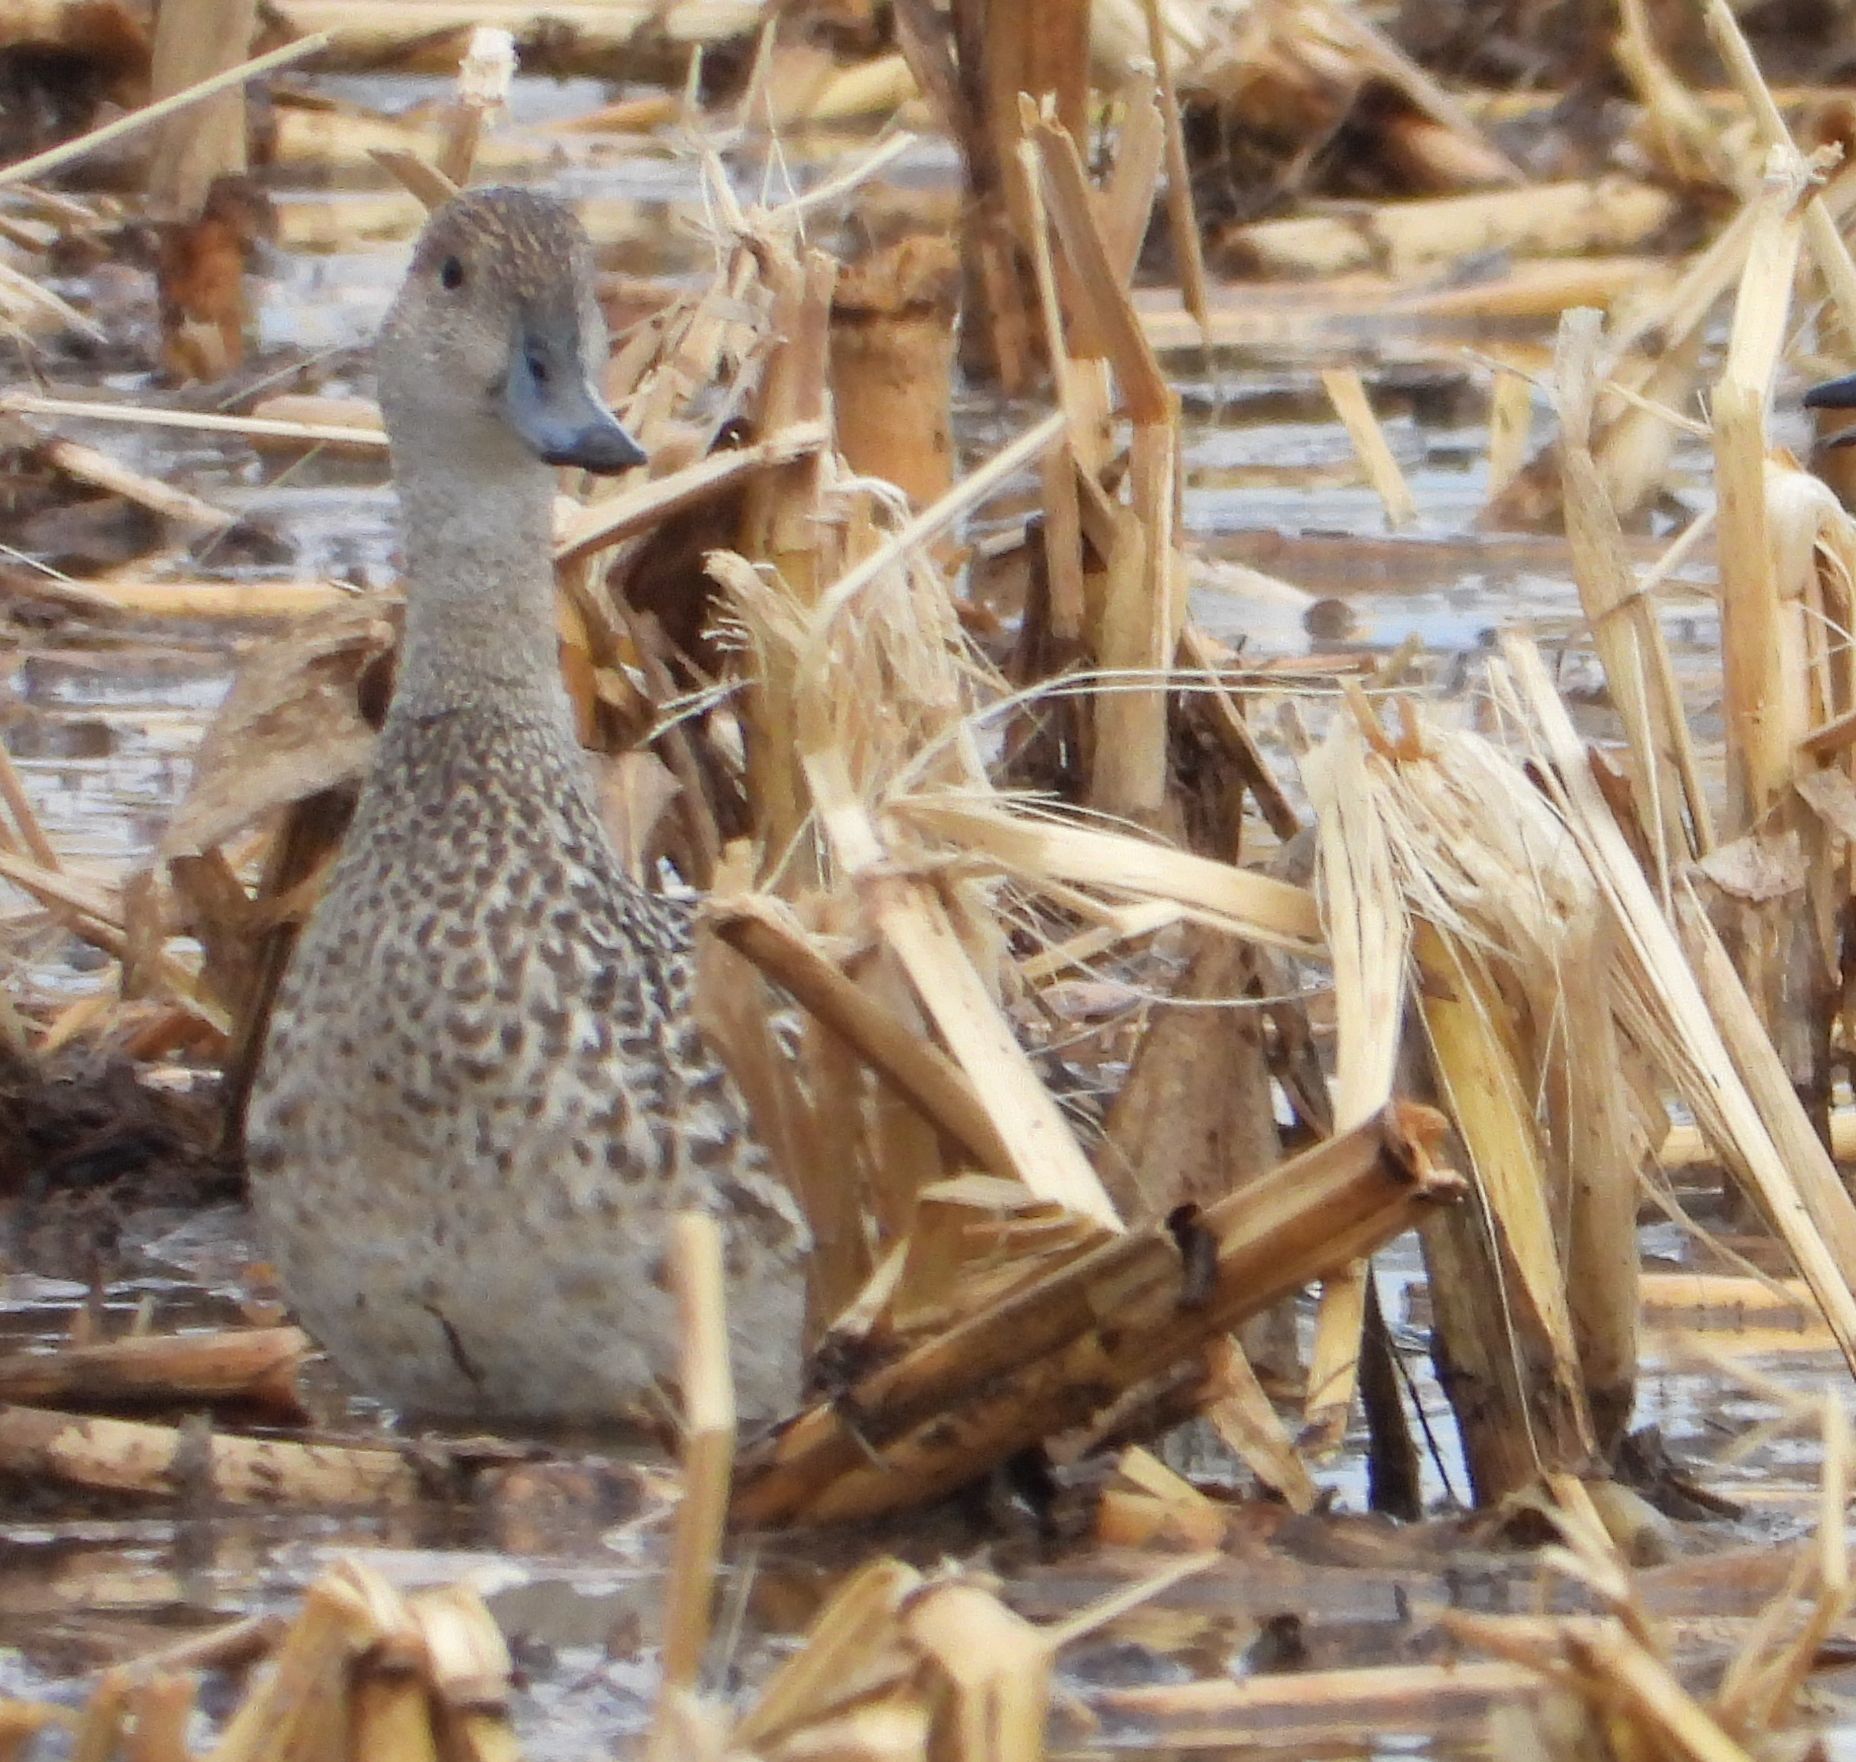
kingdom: Animalia
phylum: Chordata
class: Aves
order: Anseriformes
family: Anatidae
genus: Anas
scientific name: Anas acuta
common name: Northern pintail
